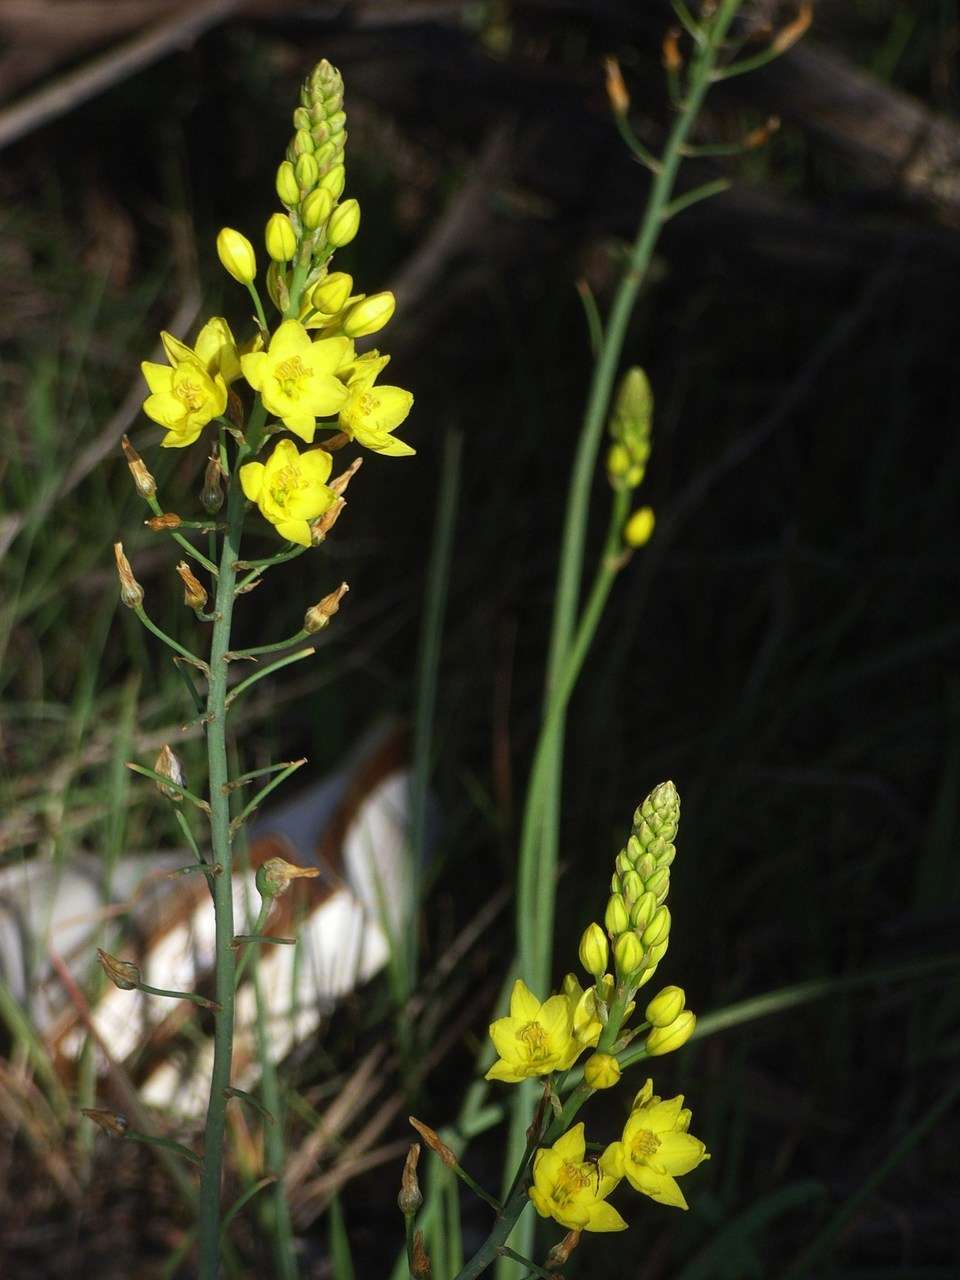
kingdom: Plantae
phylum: Tracheophyta
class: Liliopsida
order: Asparagales
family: Asphodelaceae
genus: Bulbine
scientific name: Bulbine bulbosa
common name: Golden-lily
